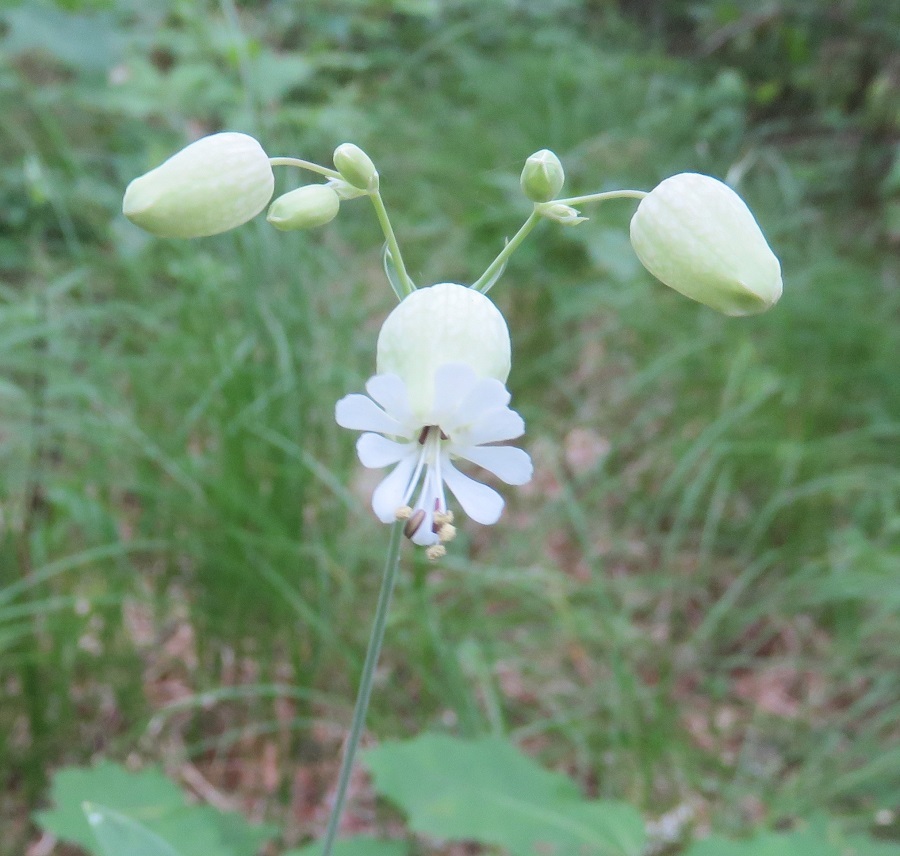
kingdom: Plantae
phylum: Tracheophyta
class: Magnoliopsida
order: Caryophyllales
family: Caryophyllaceae
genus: Silene
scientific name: Silene vulgaris
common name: Bladder campion
